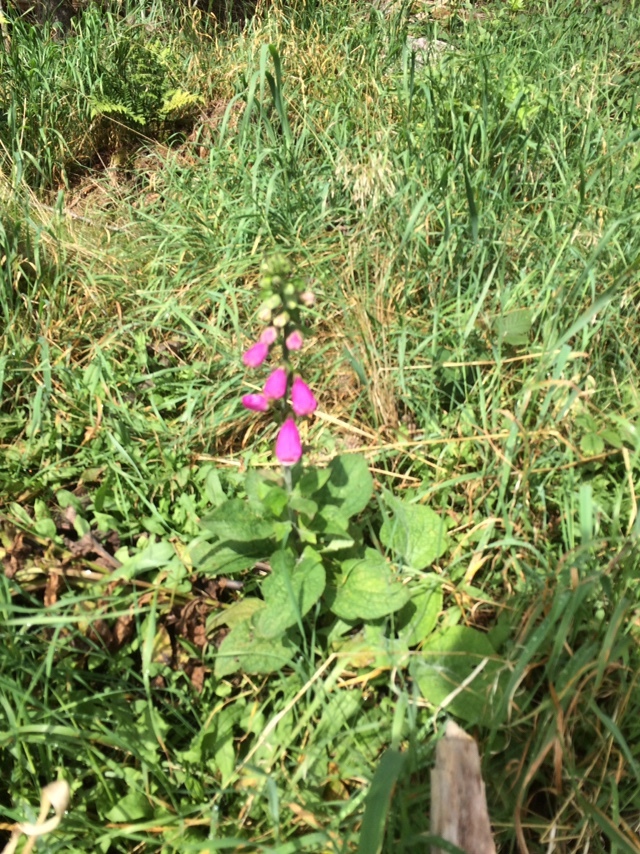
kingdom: Plantae
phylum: Tracheophyta
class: Magnoliopsida
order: Lamiales
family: Plantaginaceae
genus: Digitalis
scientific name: Digitalis purpurea
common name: Foxglove
